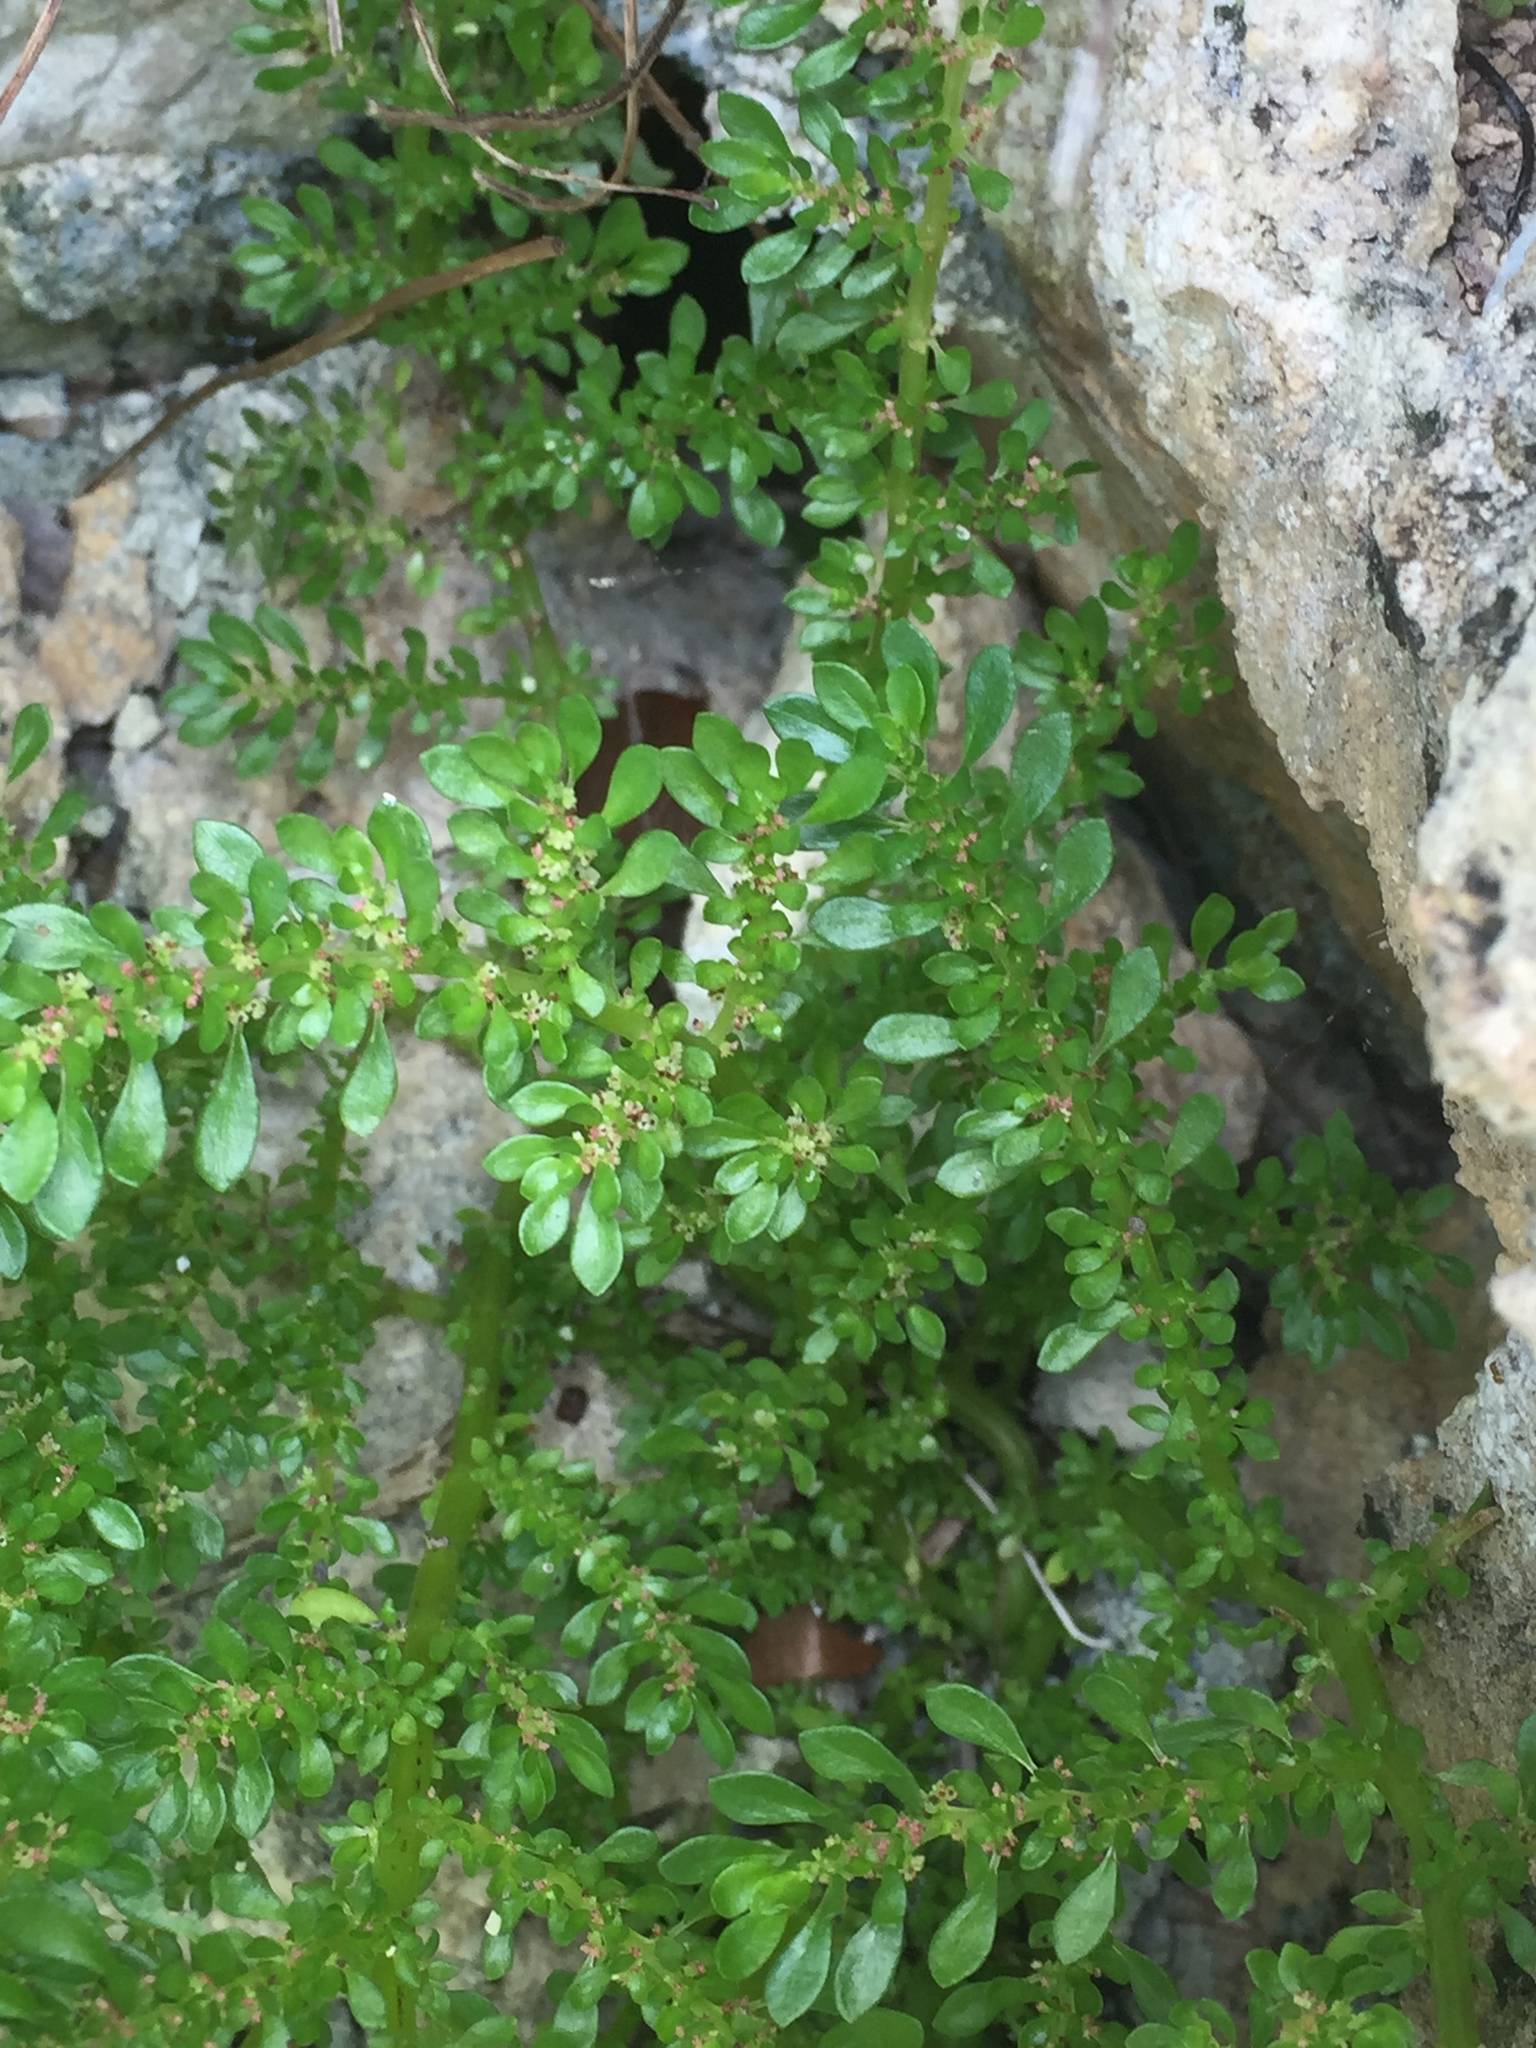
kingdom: Plantae
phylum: Tracheophyta
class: Magnoliopsida
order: Rosales
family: Urticaceae
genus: Pilea
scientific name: Pilea microphylla
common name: Artillery-plant
